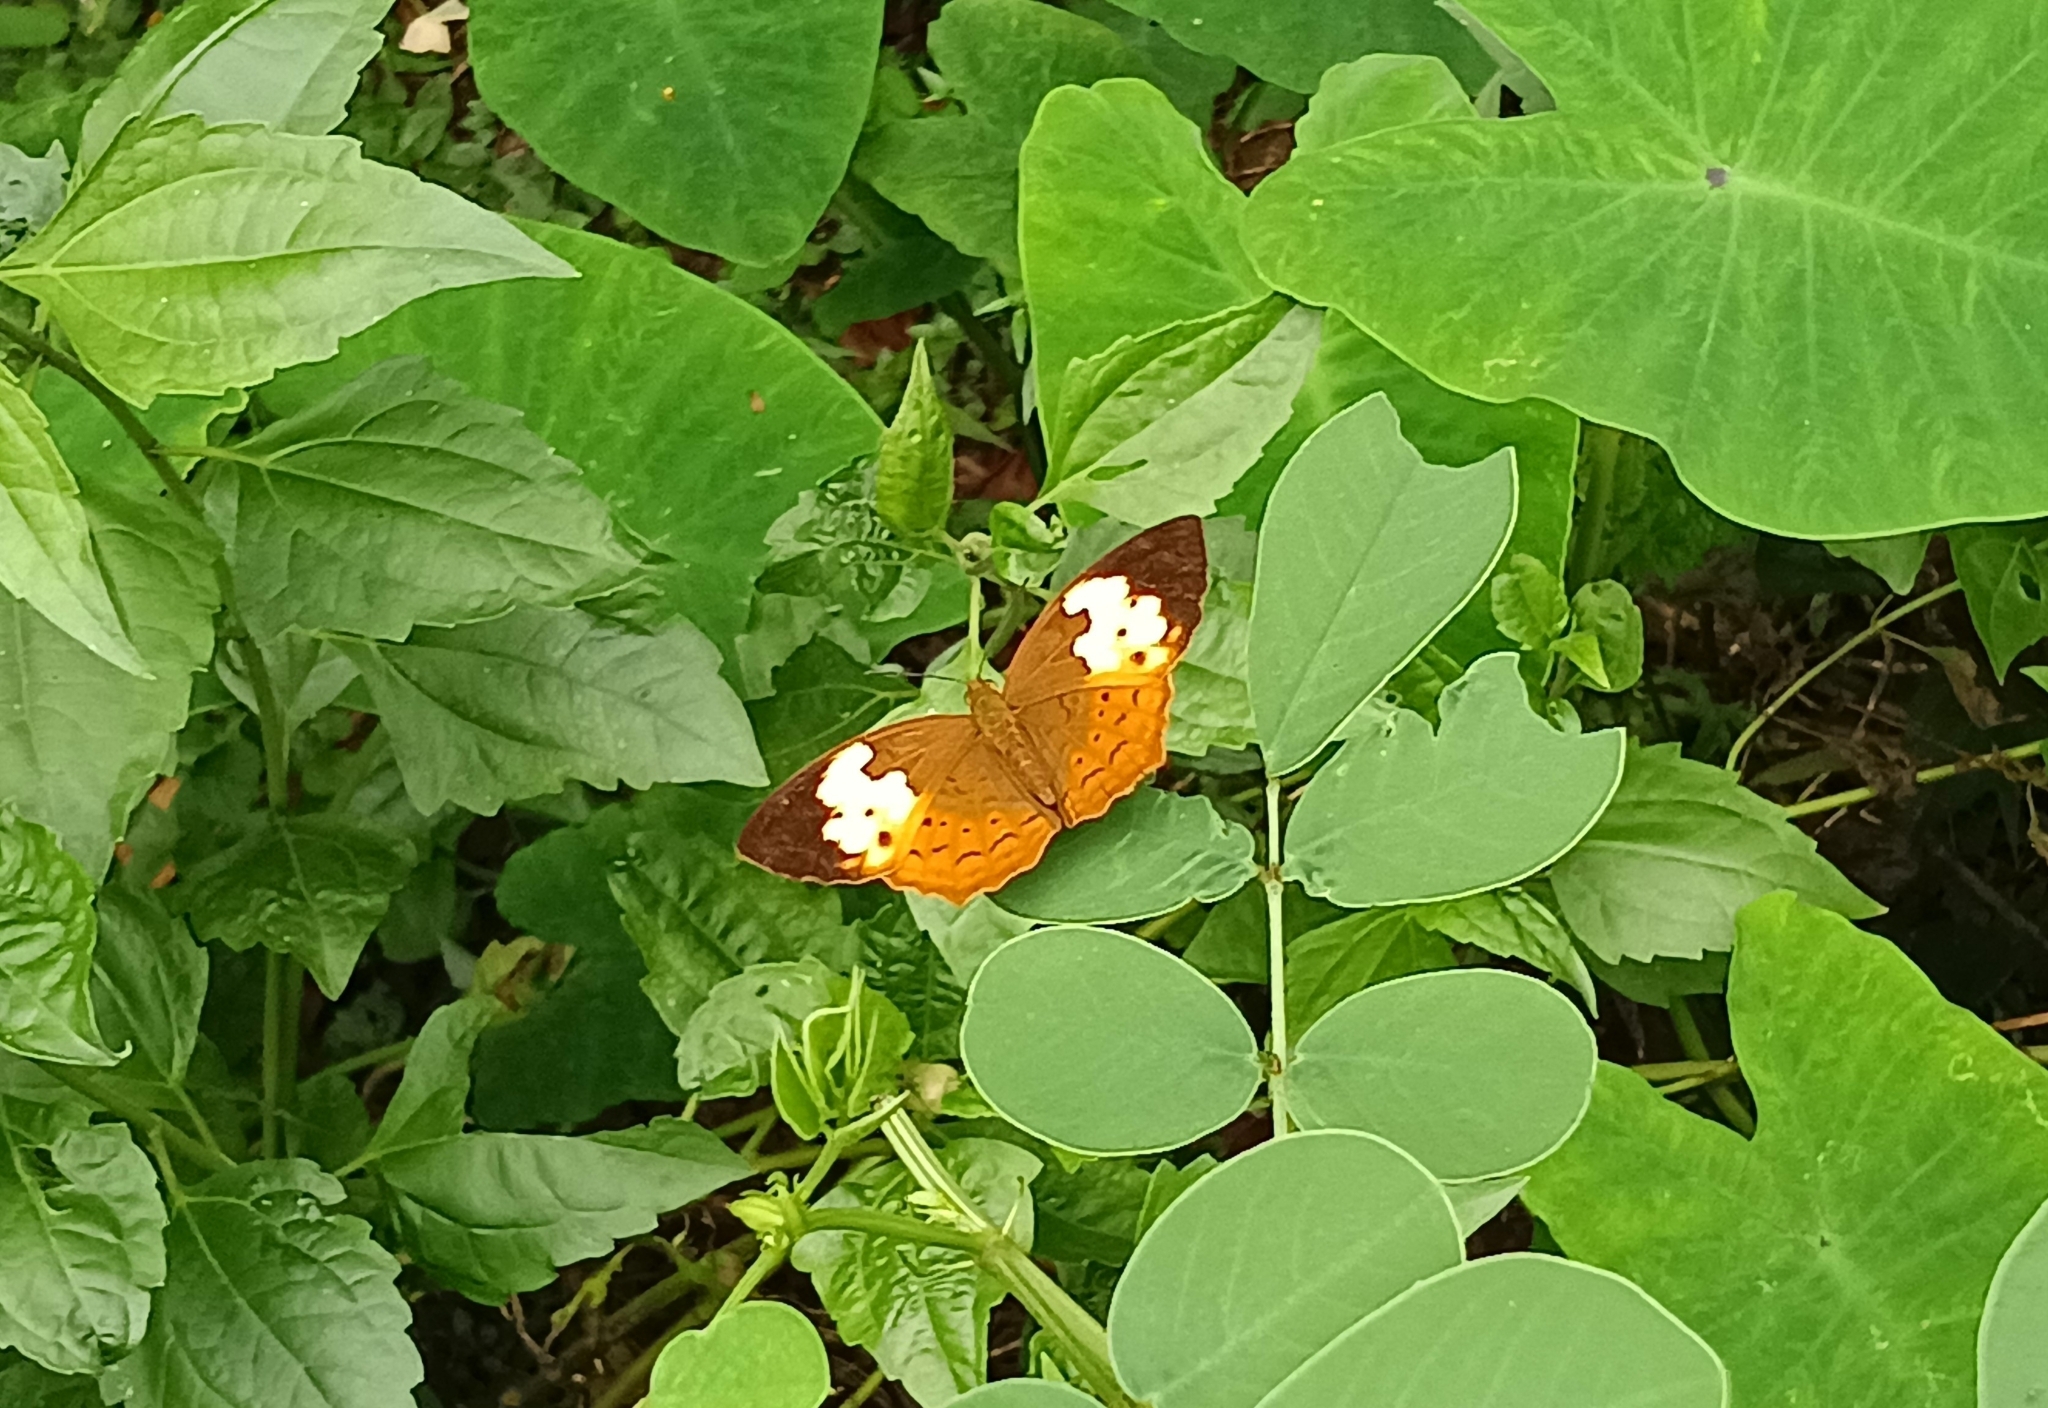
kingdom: Animalia
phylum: Arthropoda
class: Insecta
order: Lepidoptera
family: Nymphalidae
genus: Cupha
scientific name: Cupha erymanthis
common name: Rustic
